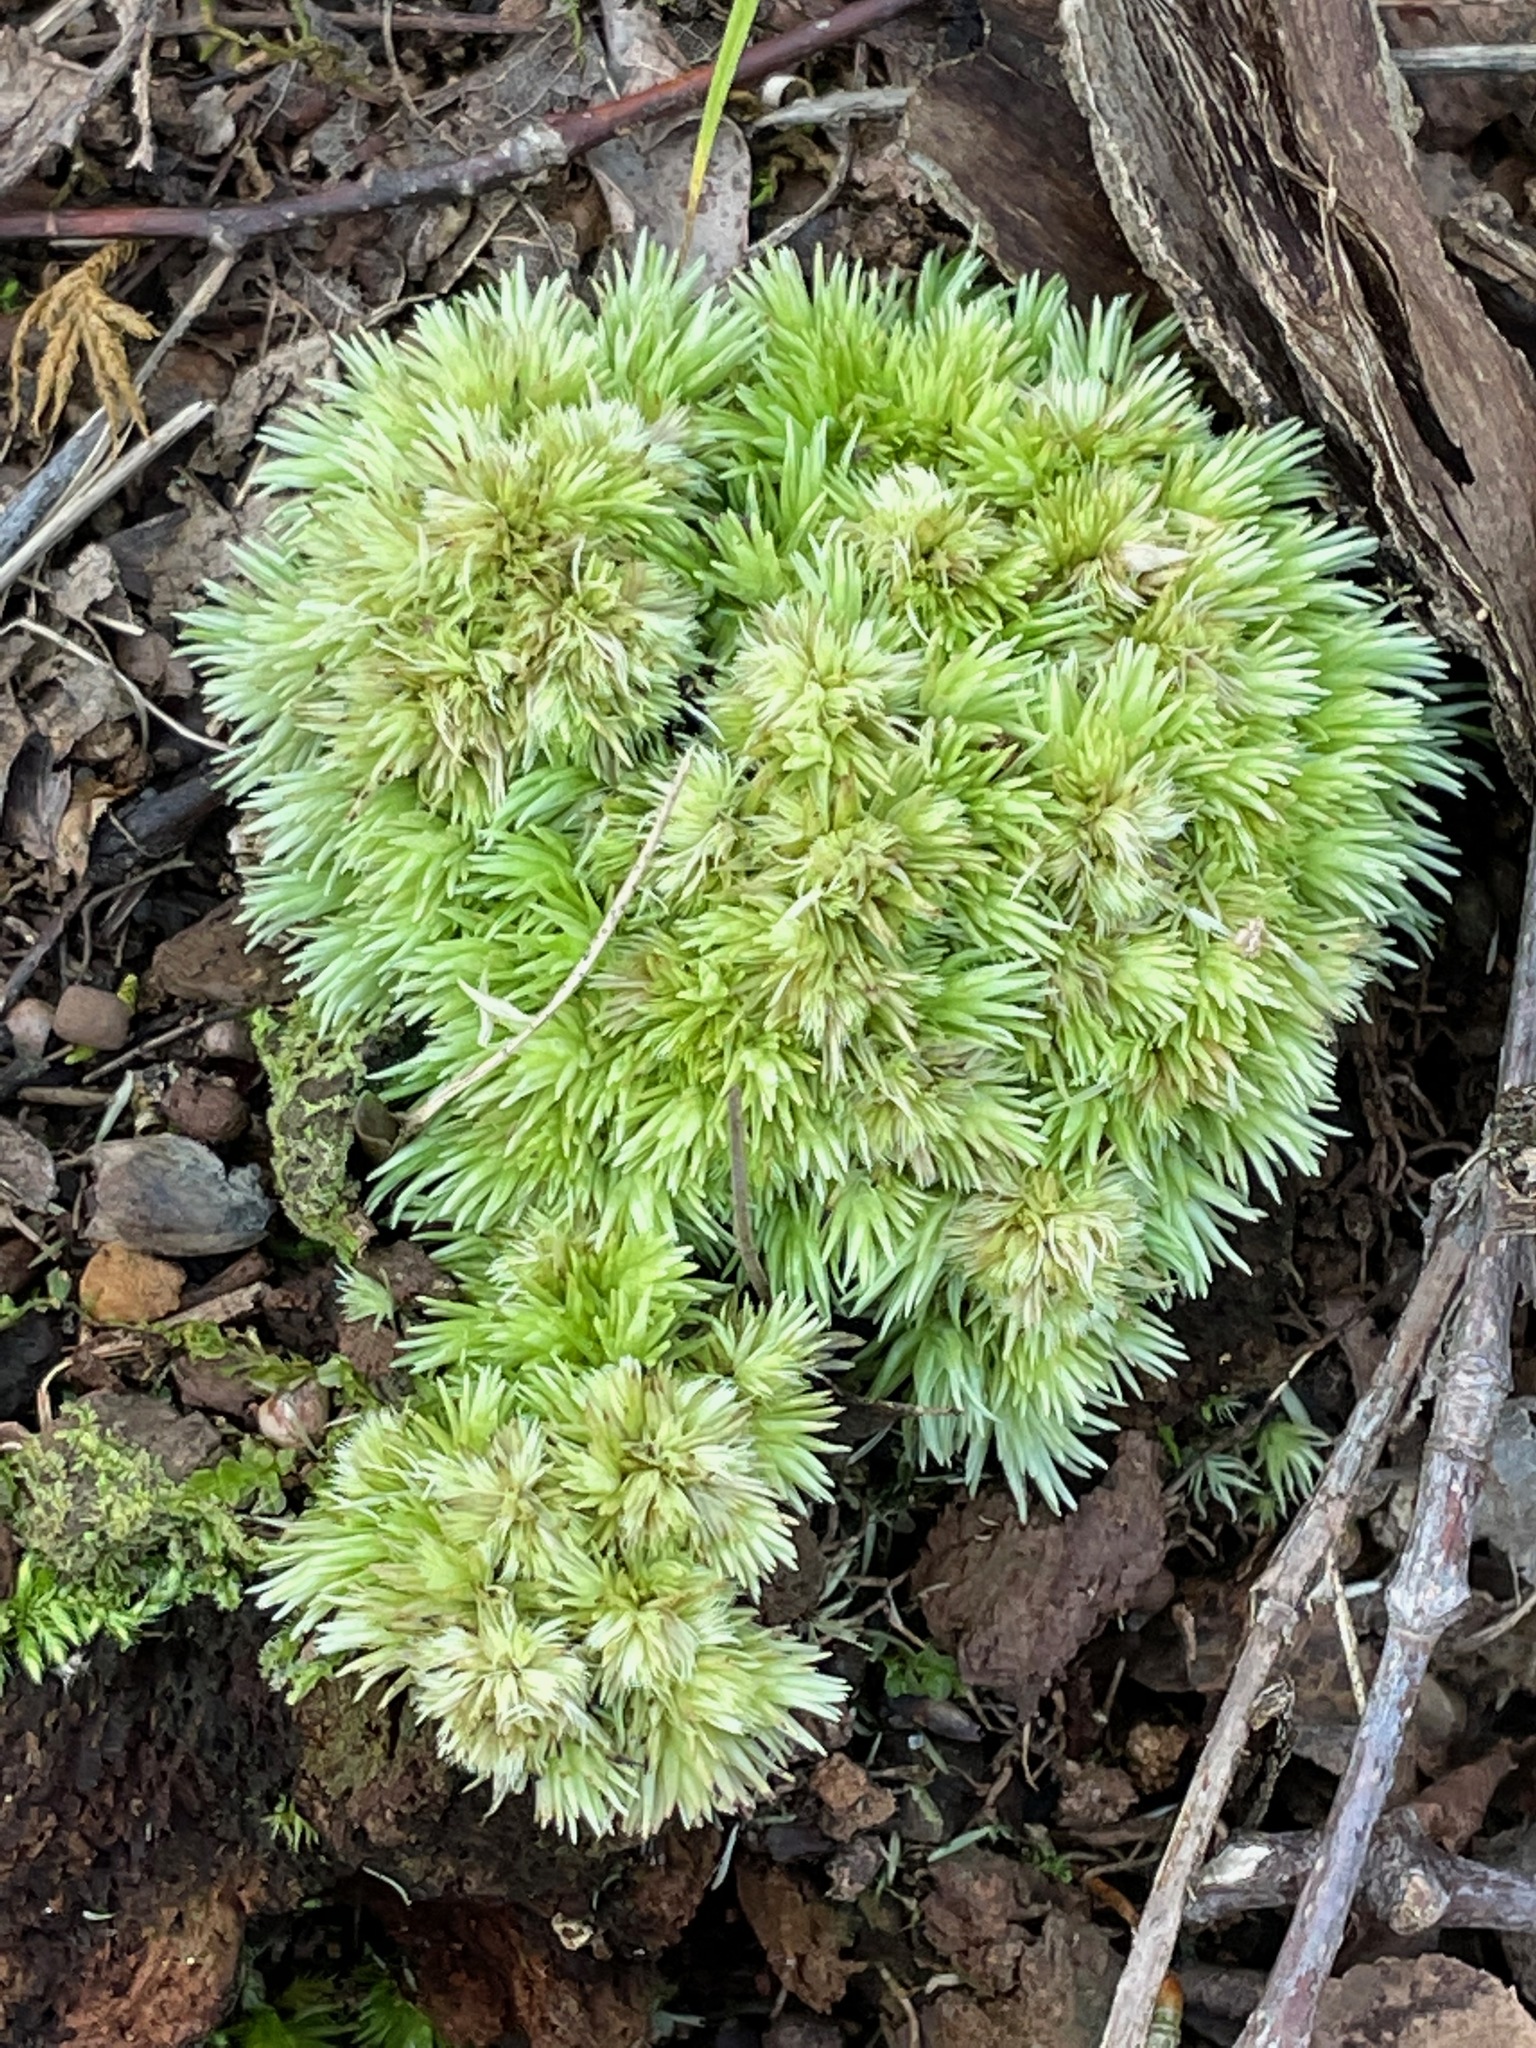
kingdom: Plantae
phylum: Bryophyta
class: Bryopsida
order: Dicranales
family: Leucobryaceae
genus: Leucobryum
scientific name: Leucobryum glaucum
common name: Large white-moss
